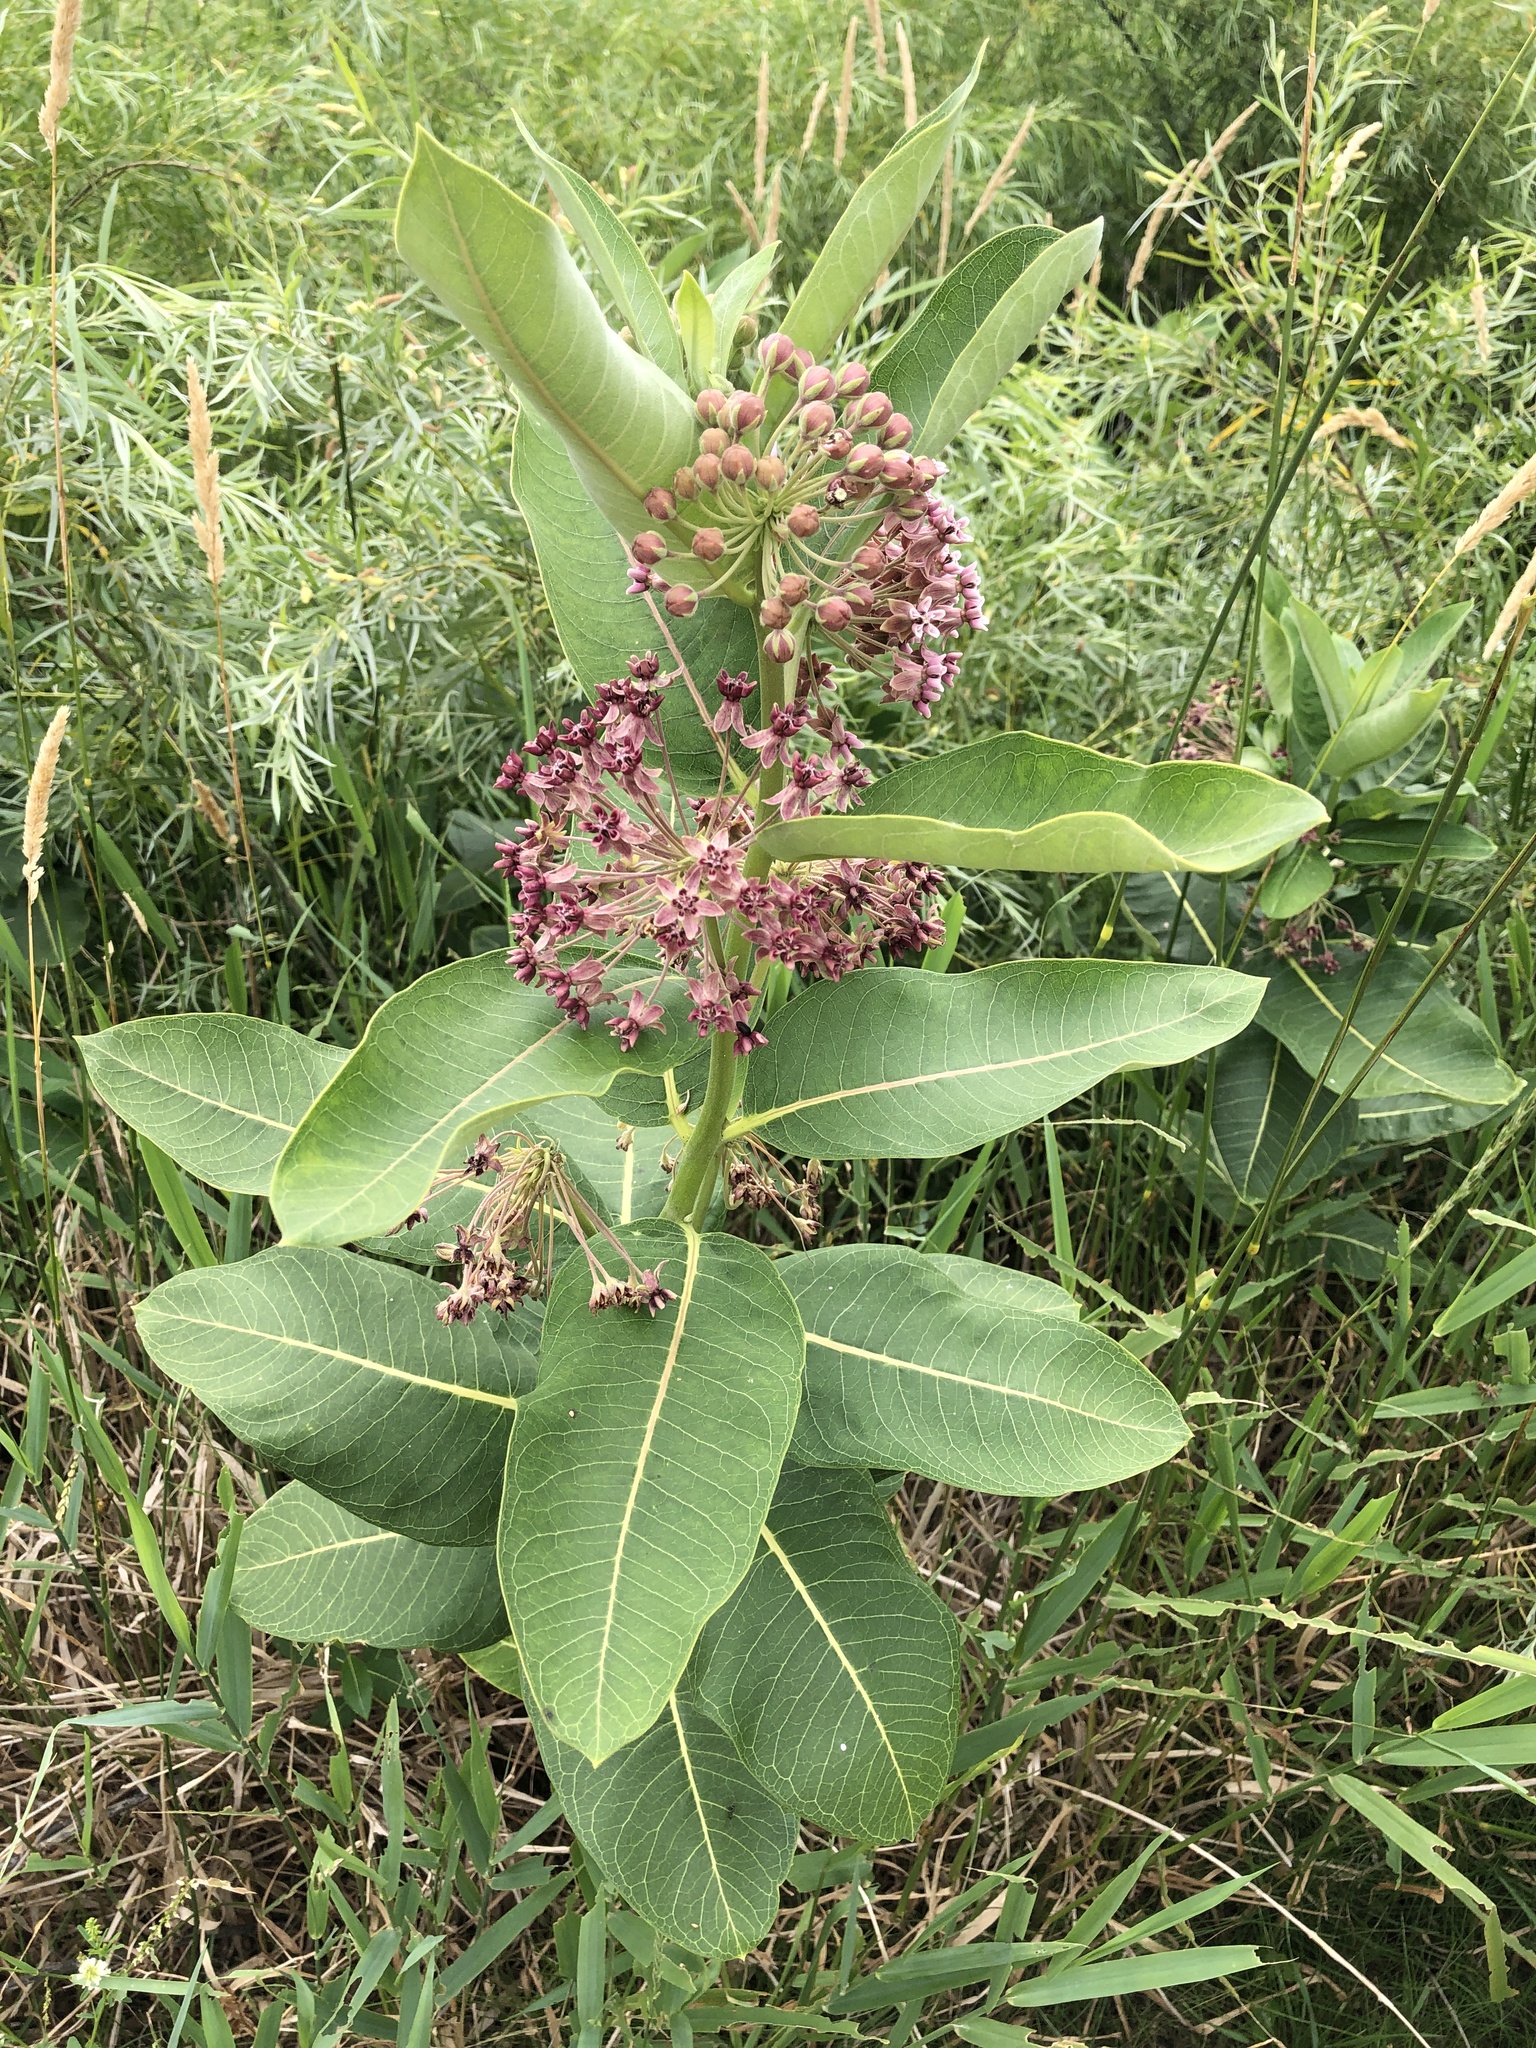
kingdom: Plantae
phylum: Tracheophyta
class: Magnoliopsida
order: Gentianales
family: Apocynaceae
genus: Asclepias
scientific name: Asclepias syriaca
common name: Common milkweed
